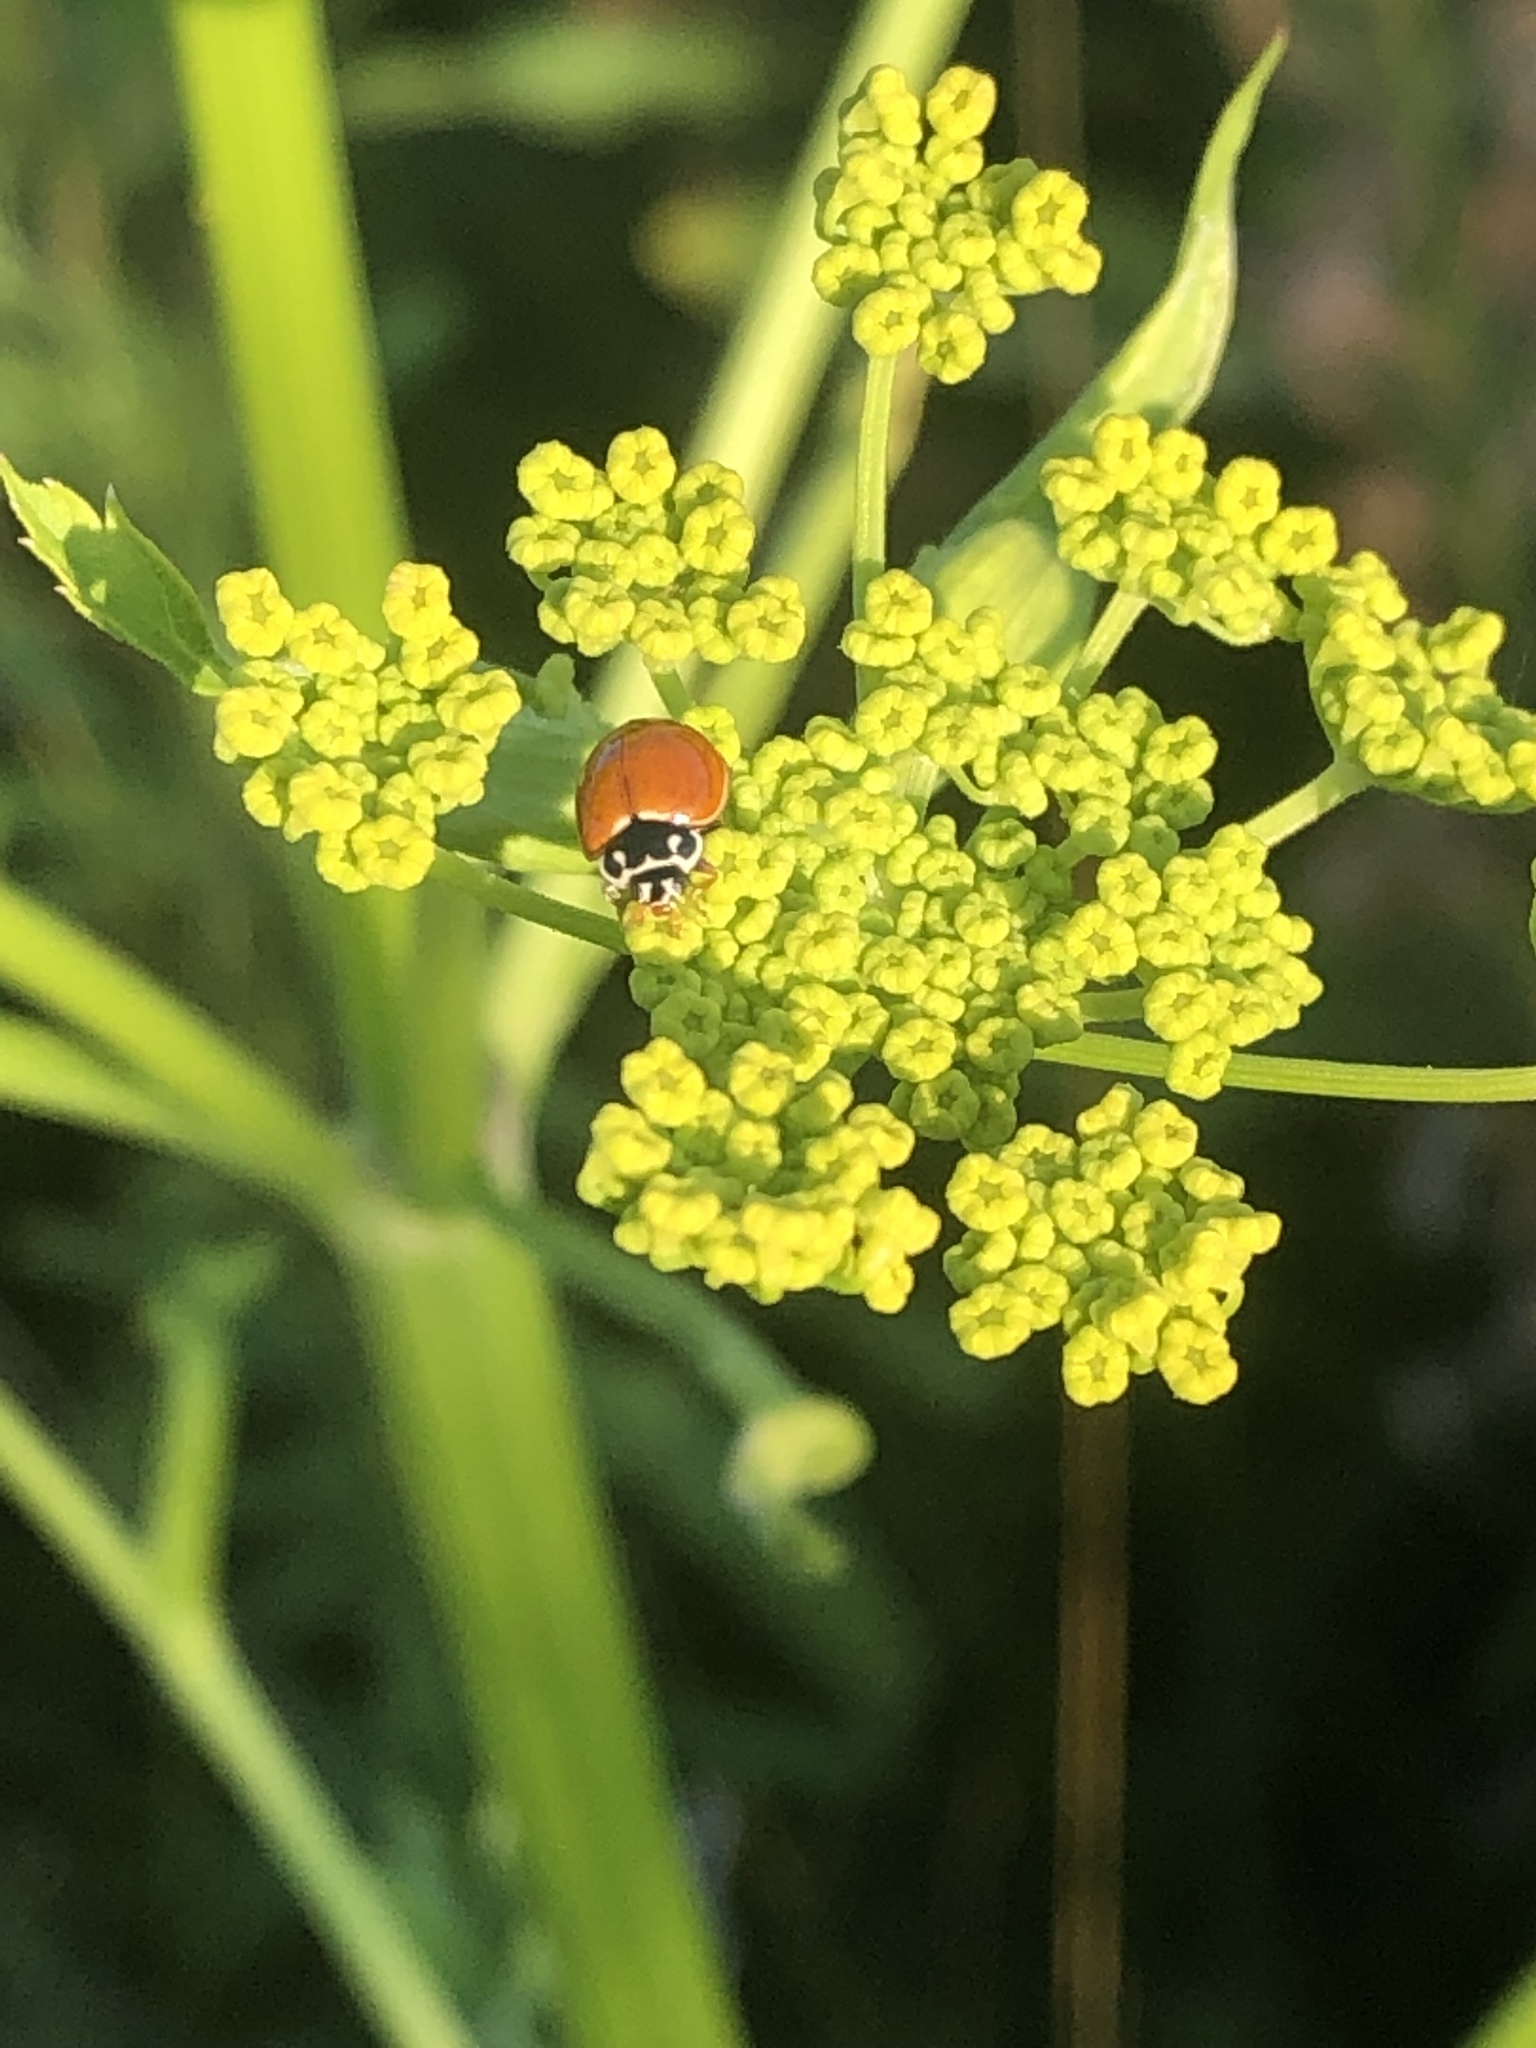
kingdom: Animalia
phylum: Arthropoda
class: Insecta
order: Coleoptera
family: Coccinellidae
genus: Cycloneda
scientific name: Cycloneda munda
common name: Polished lady beetle
